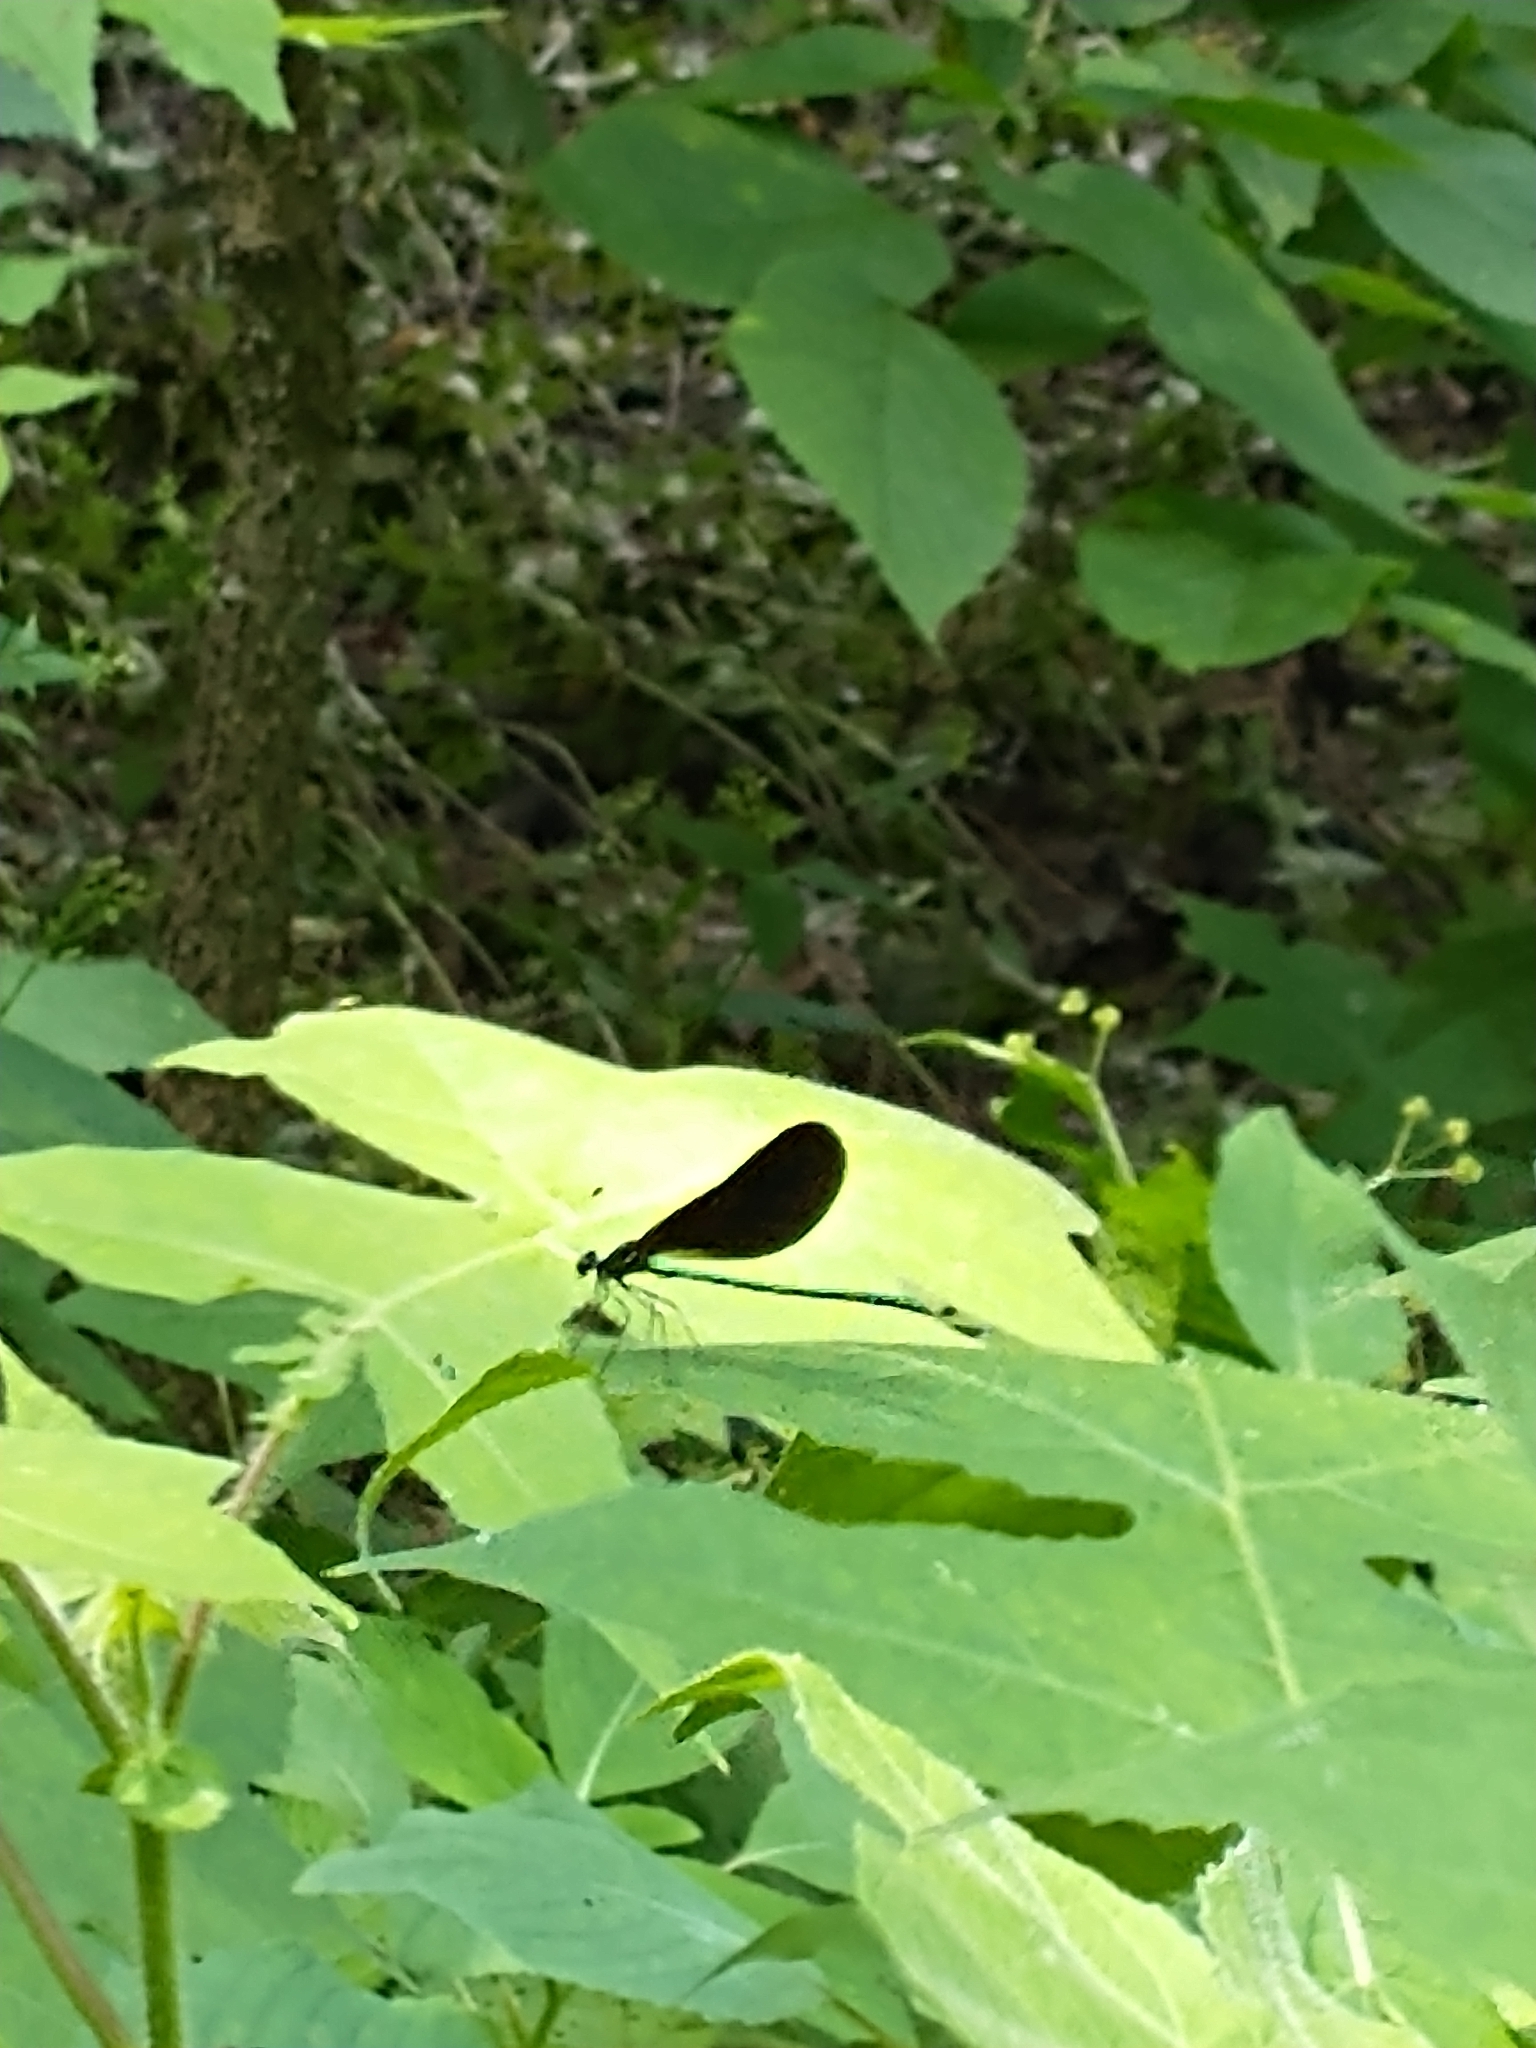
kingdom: Animalia
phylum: Arthropoda
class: Insecta
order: Odonata
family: Calopterygidae
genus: Calopteryx
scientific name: Calopteryx maculata
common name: Ebony jewelwing
